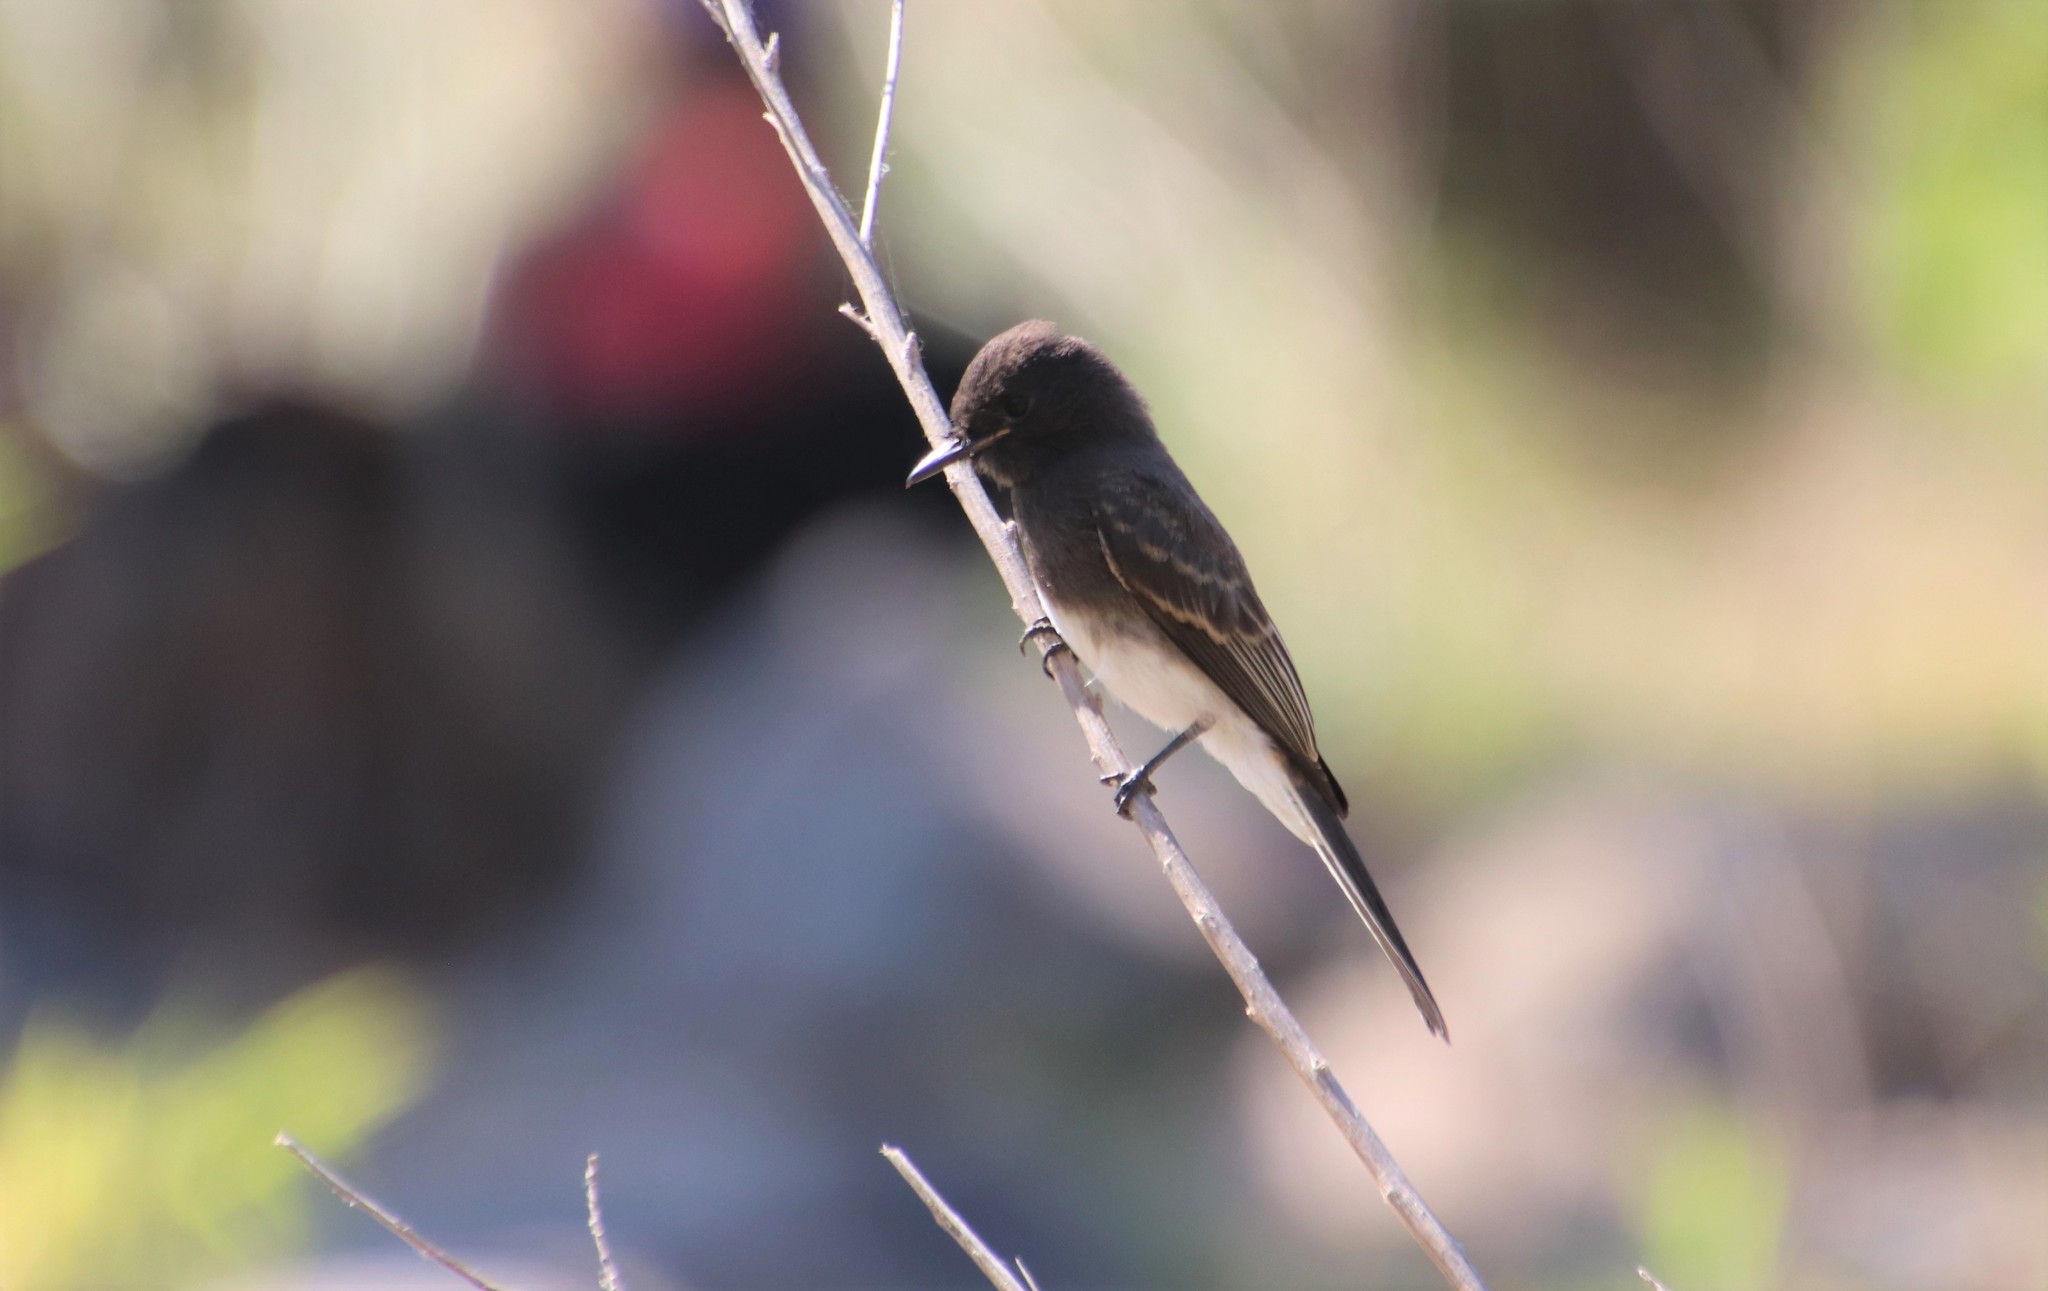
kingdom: Animalia
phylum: Chordata
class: Aves
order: Passeriformes
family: Tyrannidae
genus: Sayornis
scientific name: Sayornis nigricans
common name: Black phoebe
